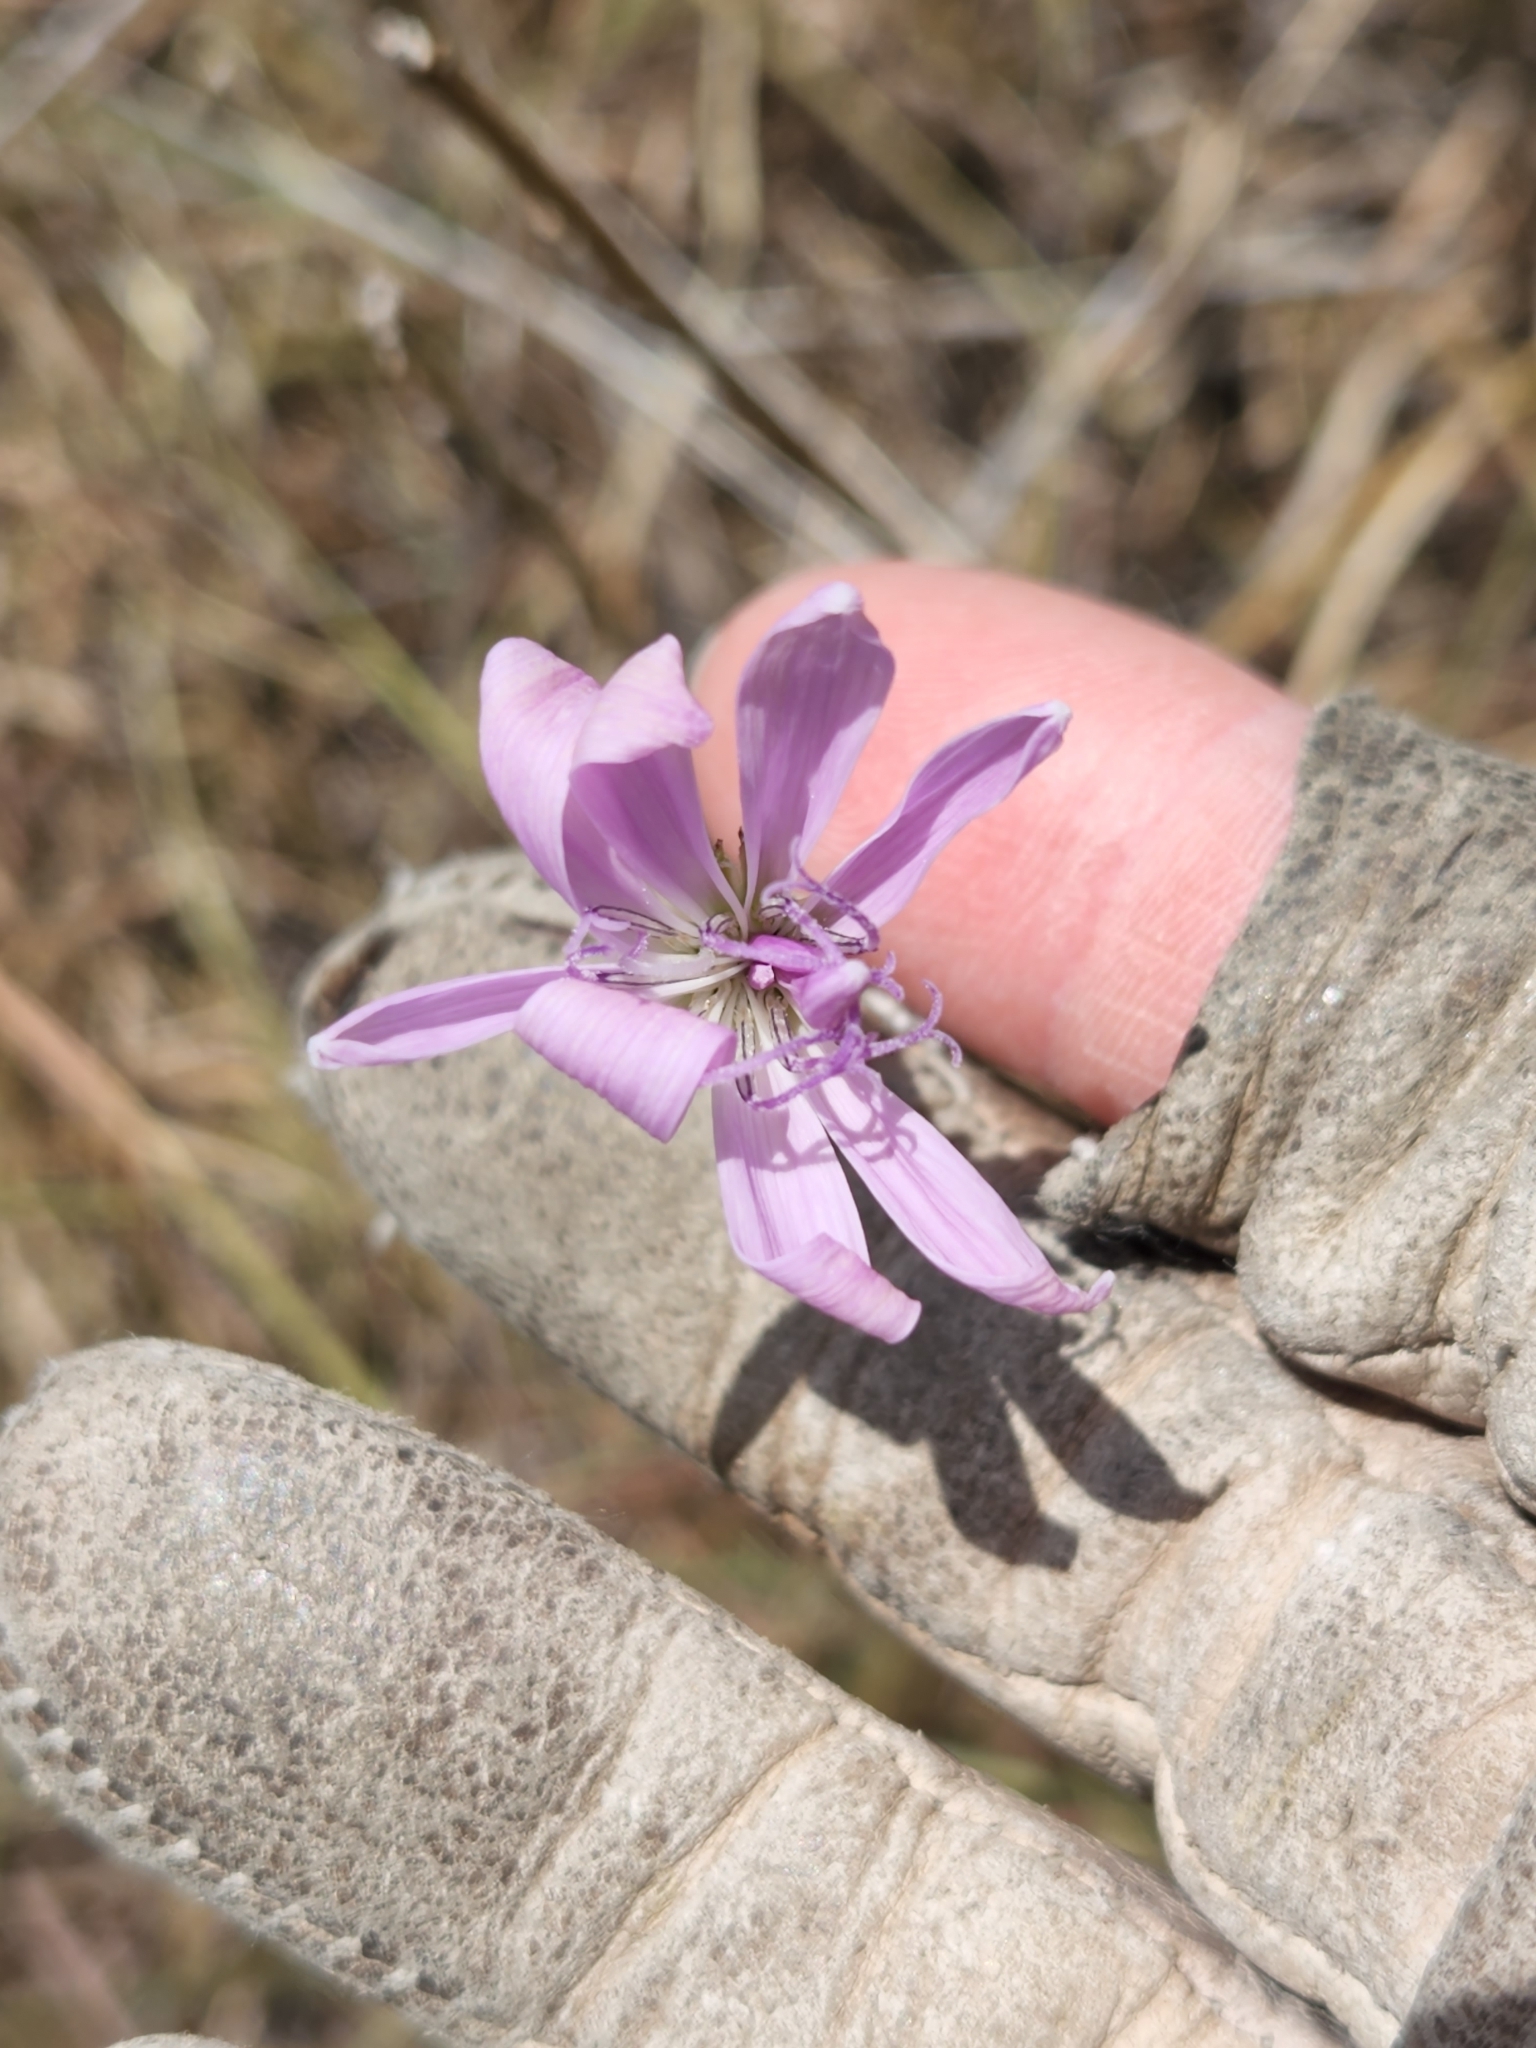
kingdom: Plantae
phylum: Tracheophyta
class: Magnoliopsida
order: Asterales
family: Asteraceae
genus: Lygodesmia
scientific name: Lygodesmia texana
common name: Texas skeleton-plant
